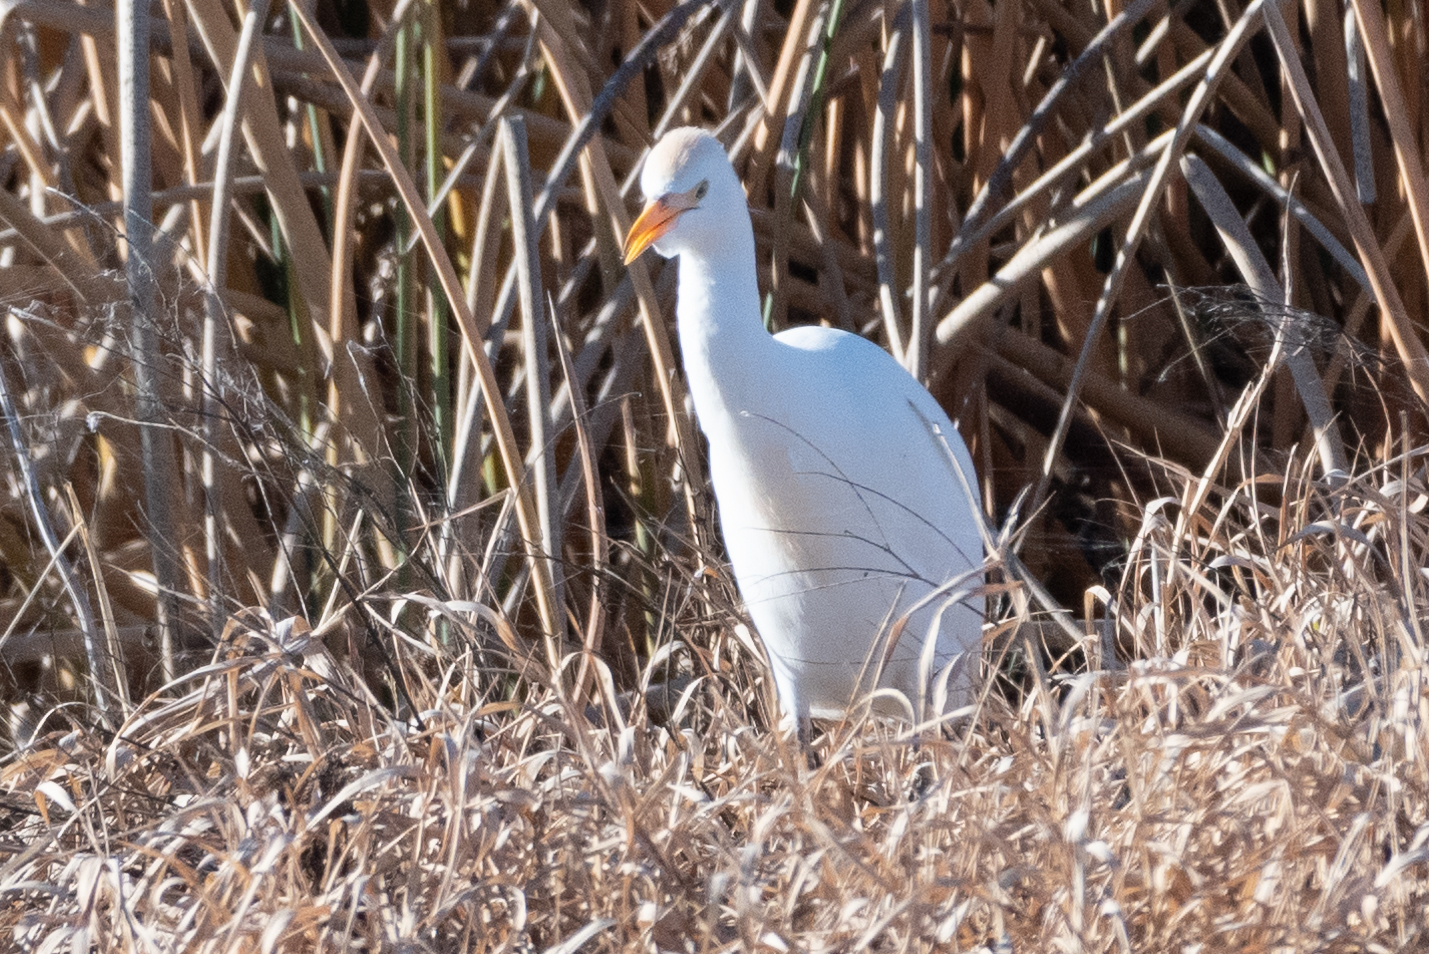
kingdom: Animalia
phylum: Chordata
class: Aves
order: Pelecaniformes
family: Ardeidae
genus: Bubulcus
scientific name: Bubulcus ibis
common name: Cattle egret
